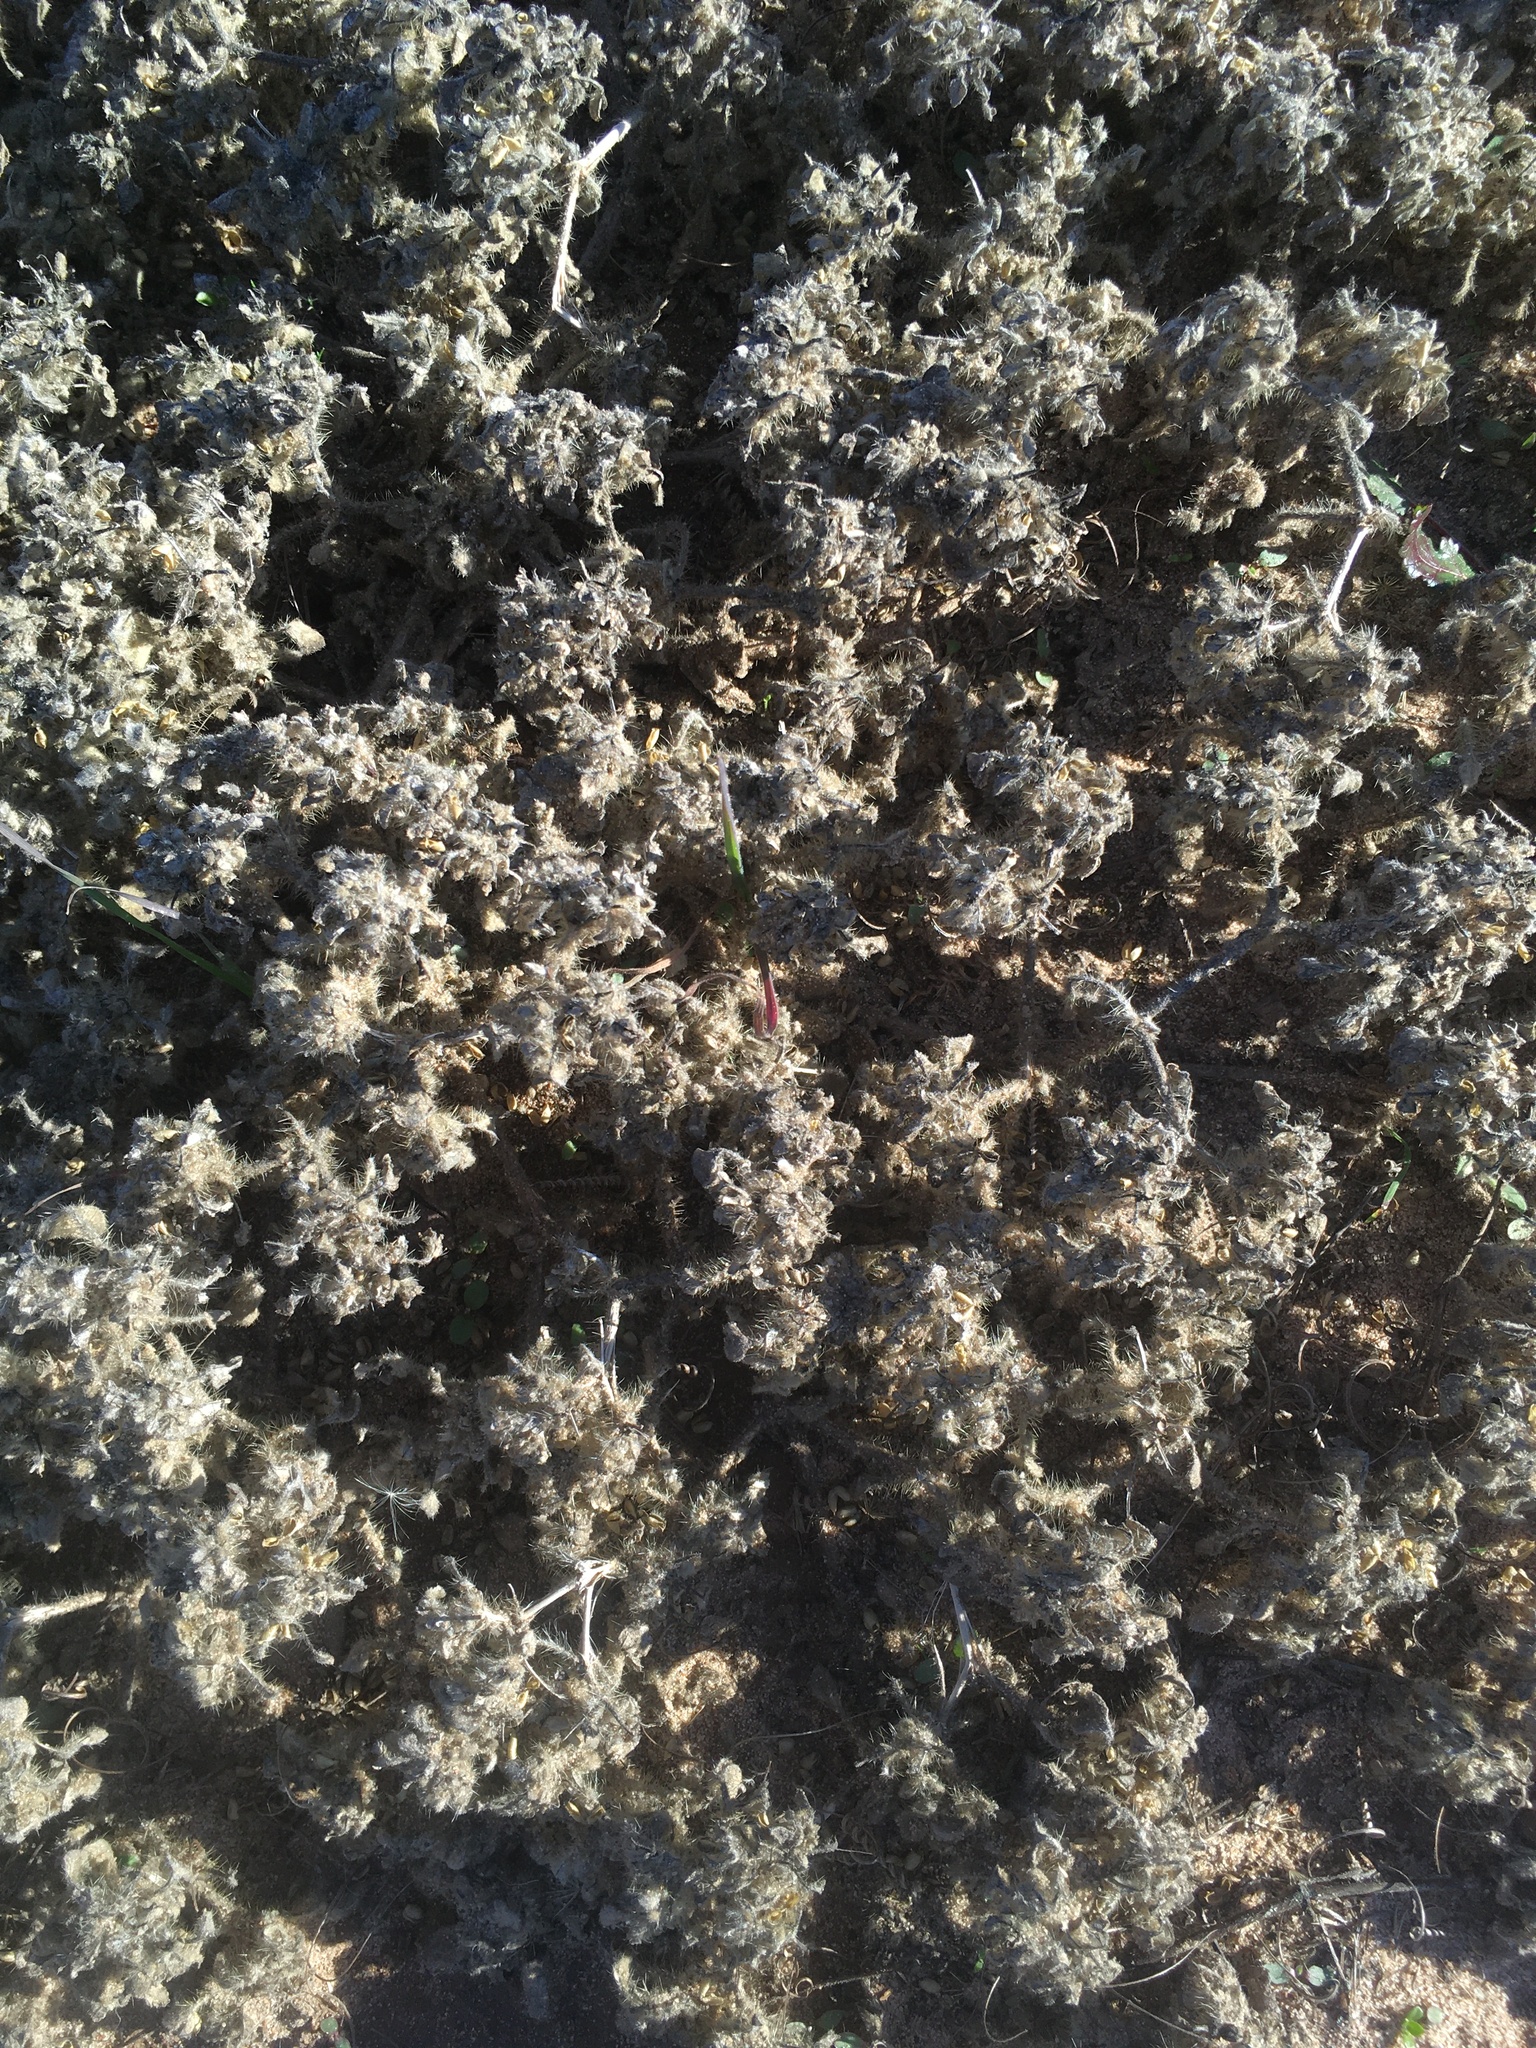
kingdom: Plantae
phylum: Tracheophyta
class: Magnoliopsida
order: Malpighiales
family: Euphorbiaceae
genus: Croton
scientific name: Croton setiger
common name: Dove weed
